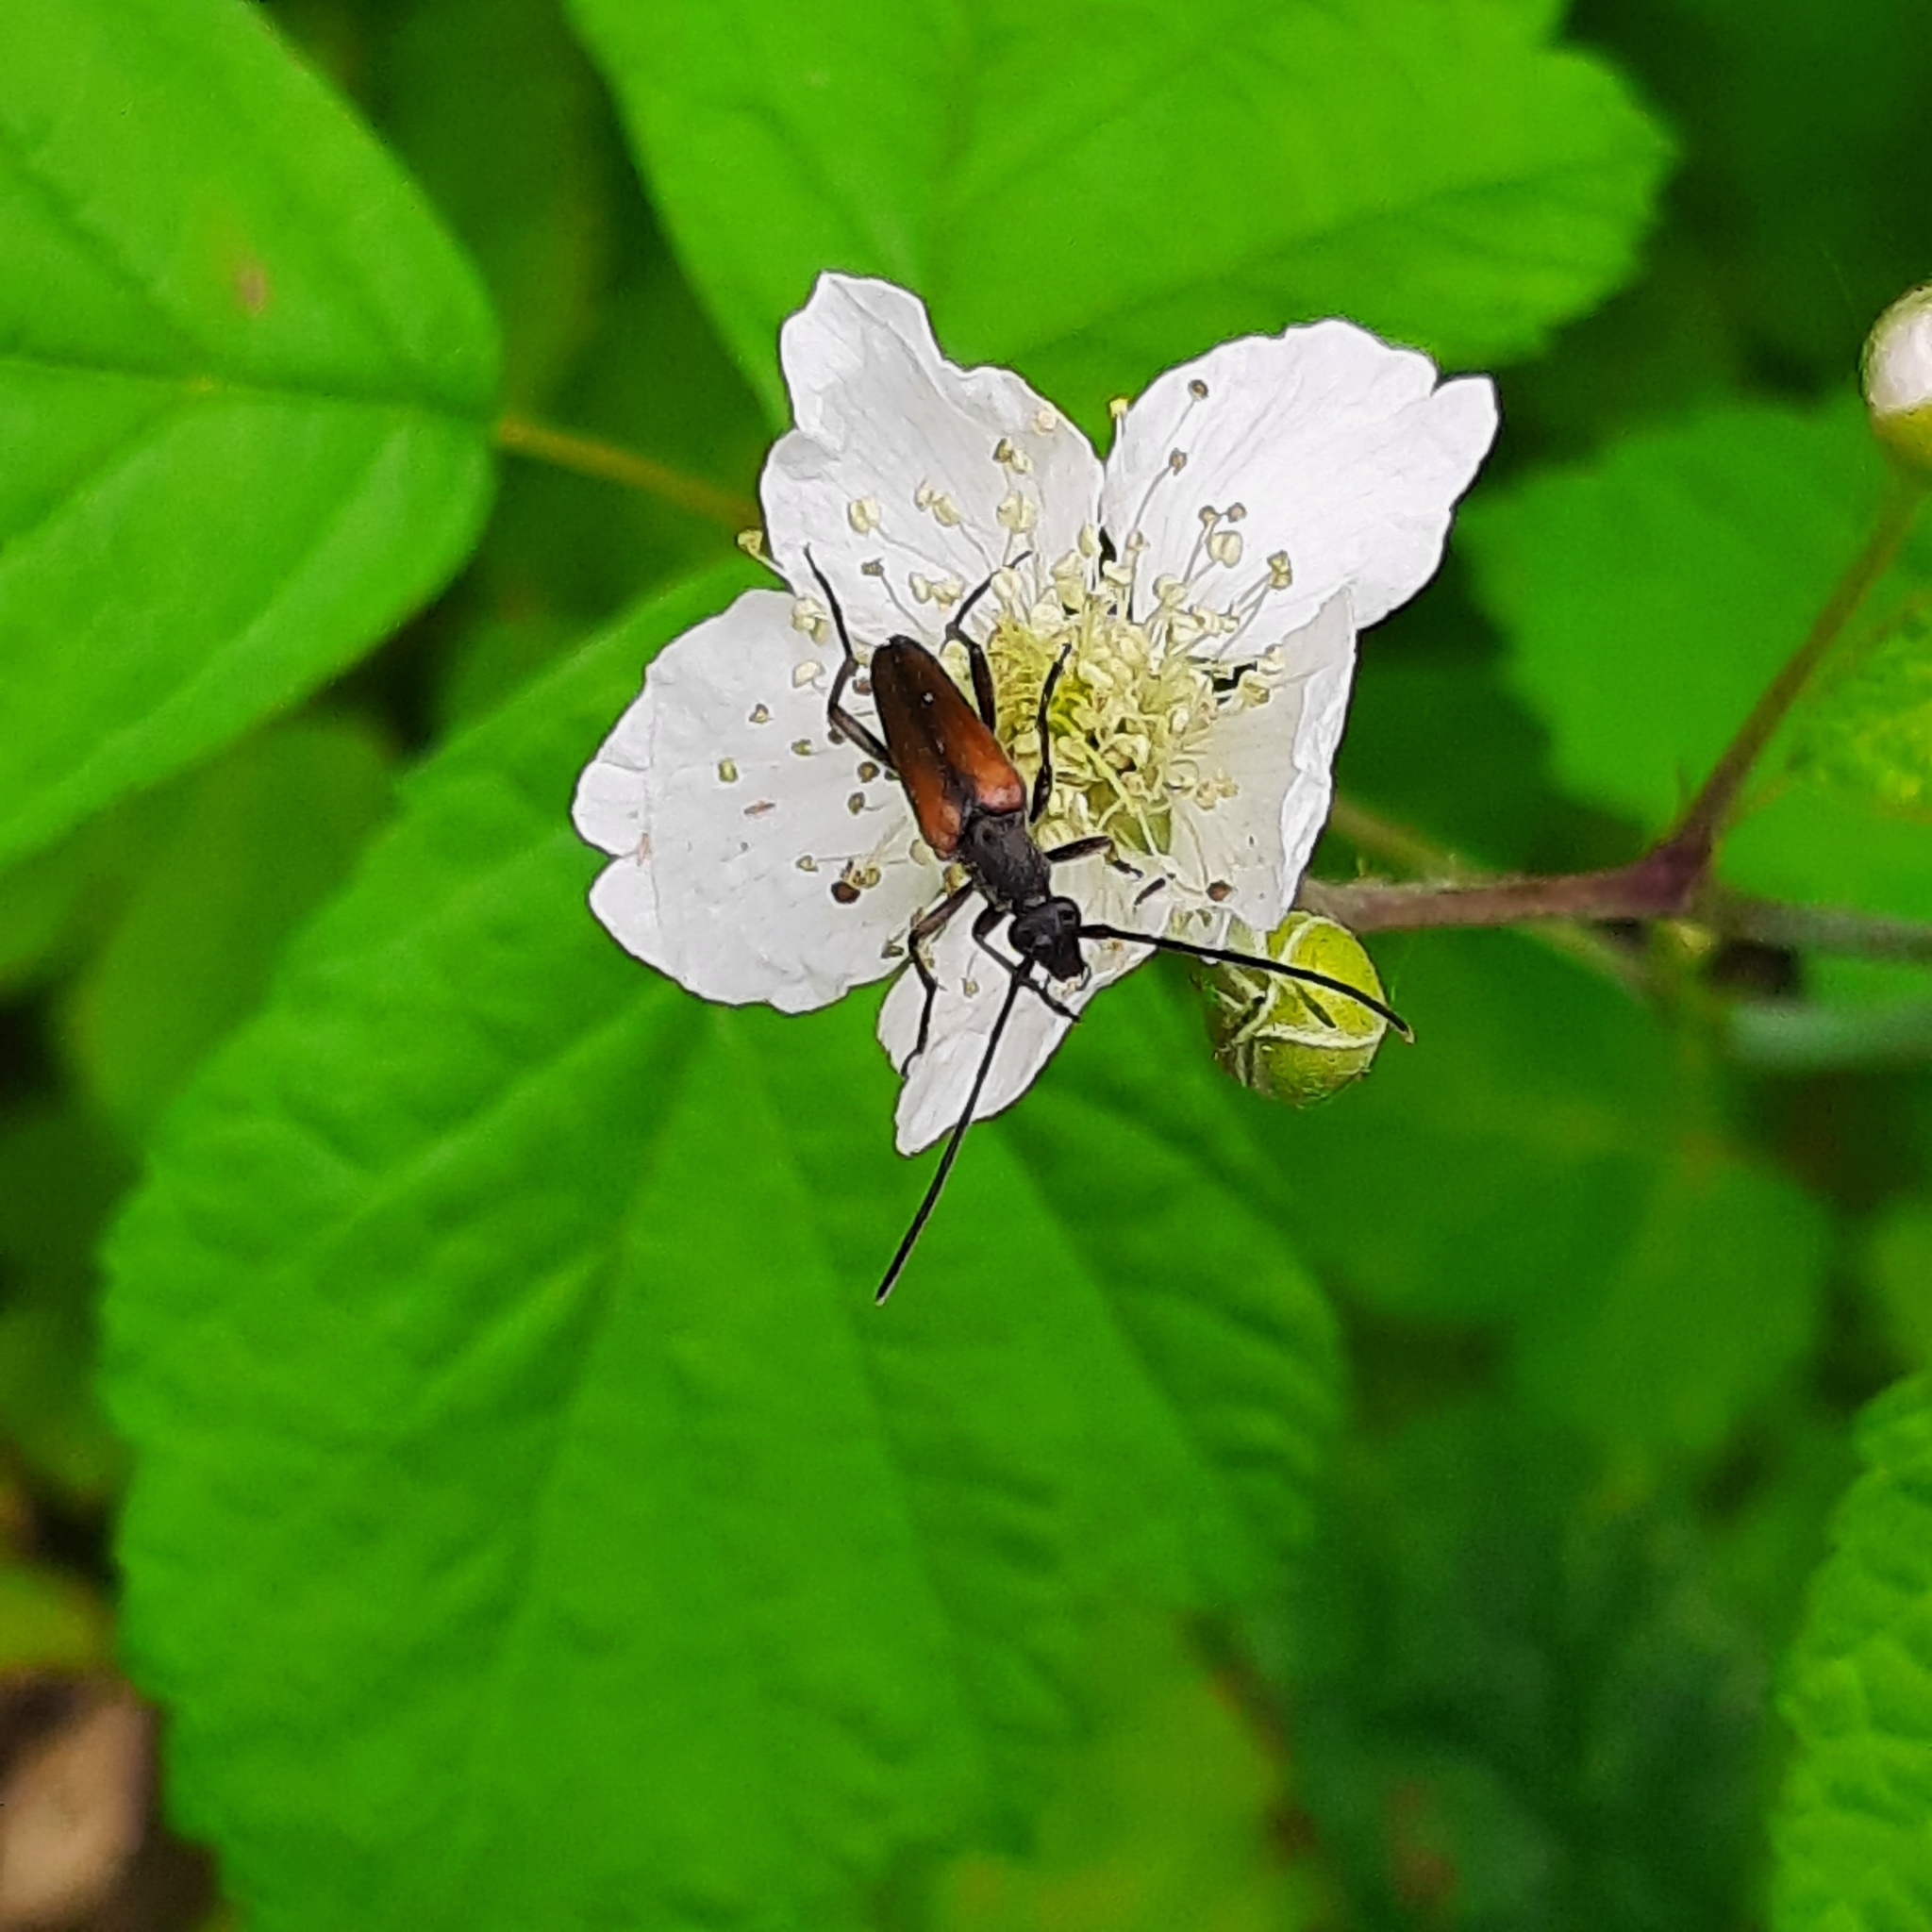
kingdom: Animalia
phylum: Arthropoda
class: Insecta
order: Coleoptera
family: Cerambycidae
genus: Stenurella
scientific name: Stenurella melanura
